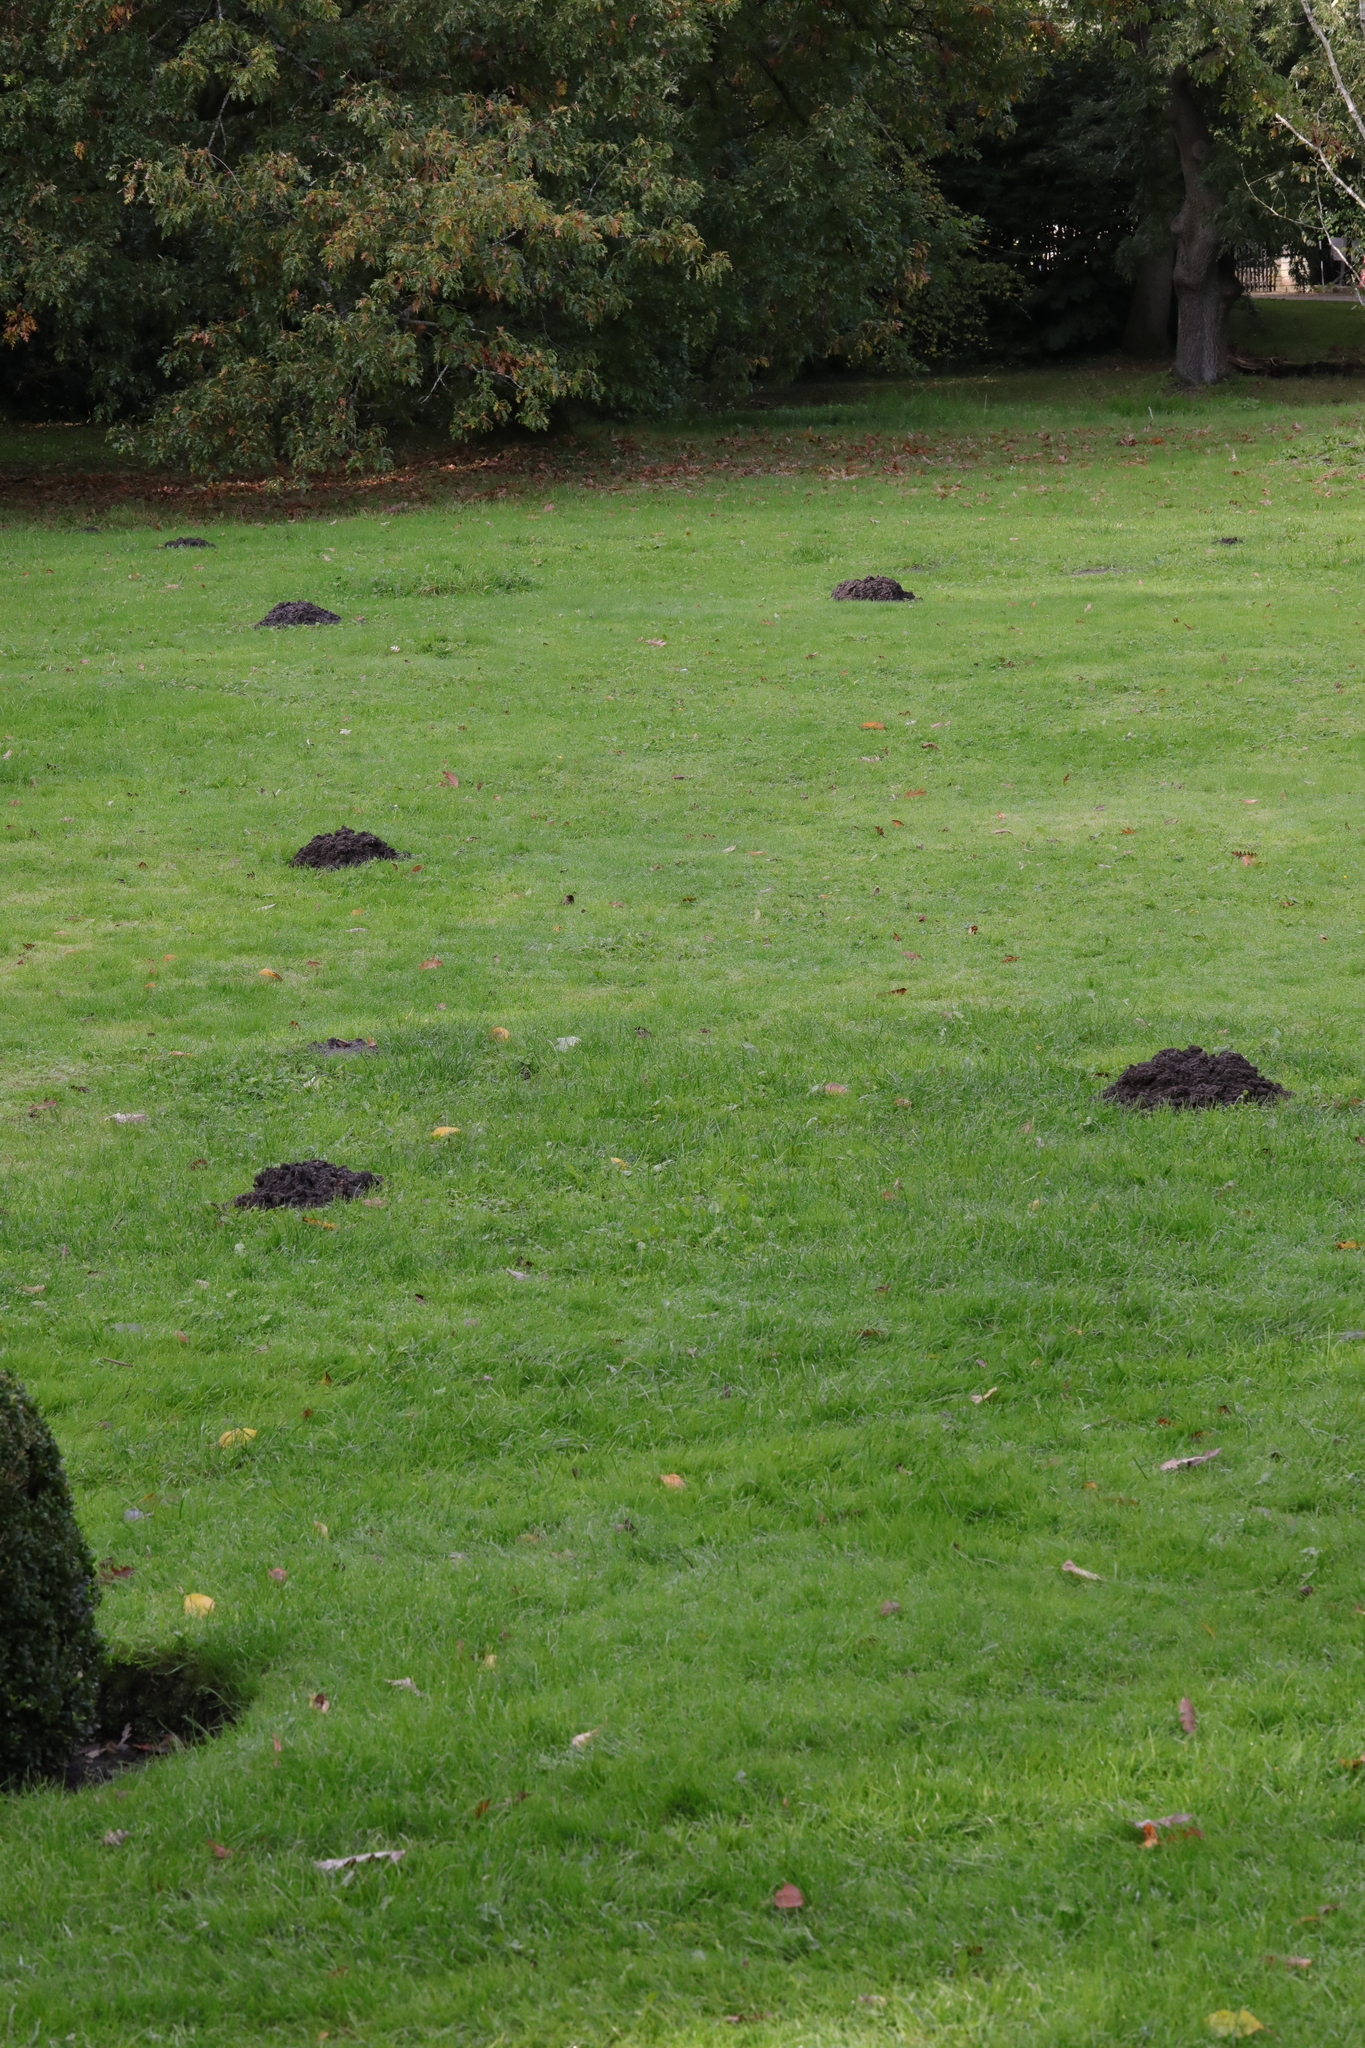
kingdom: Animalia
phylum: Chordata
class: Mammalia
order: Soricomorpha
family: Talpidae
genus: Talpa
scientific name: Talpa europaea
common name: European mole
